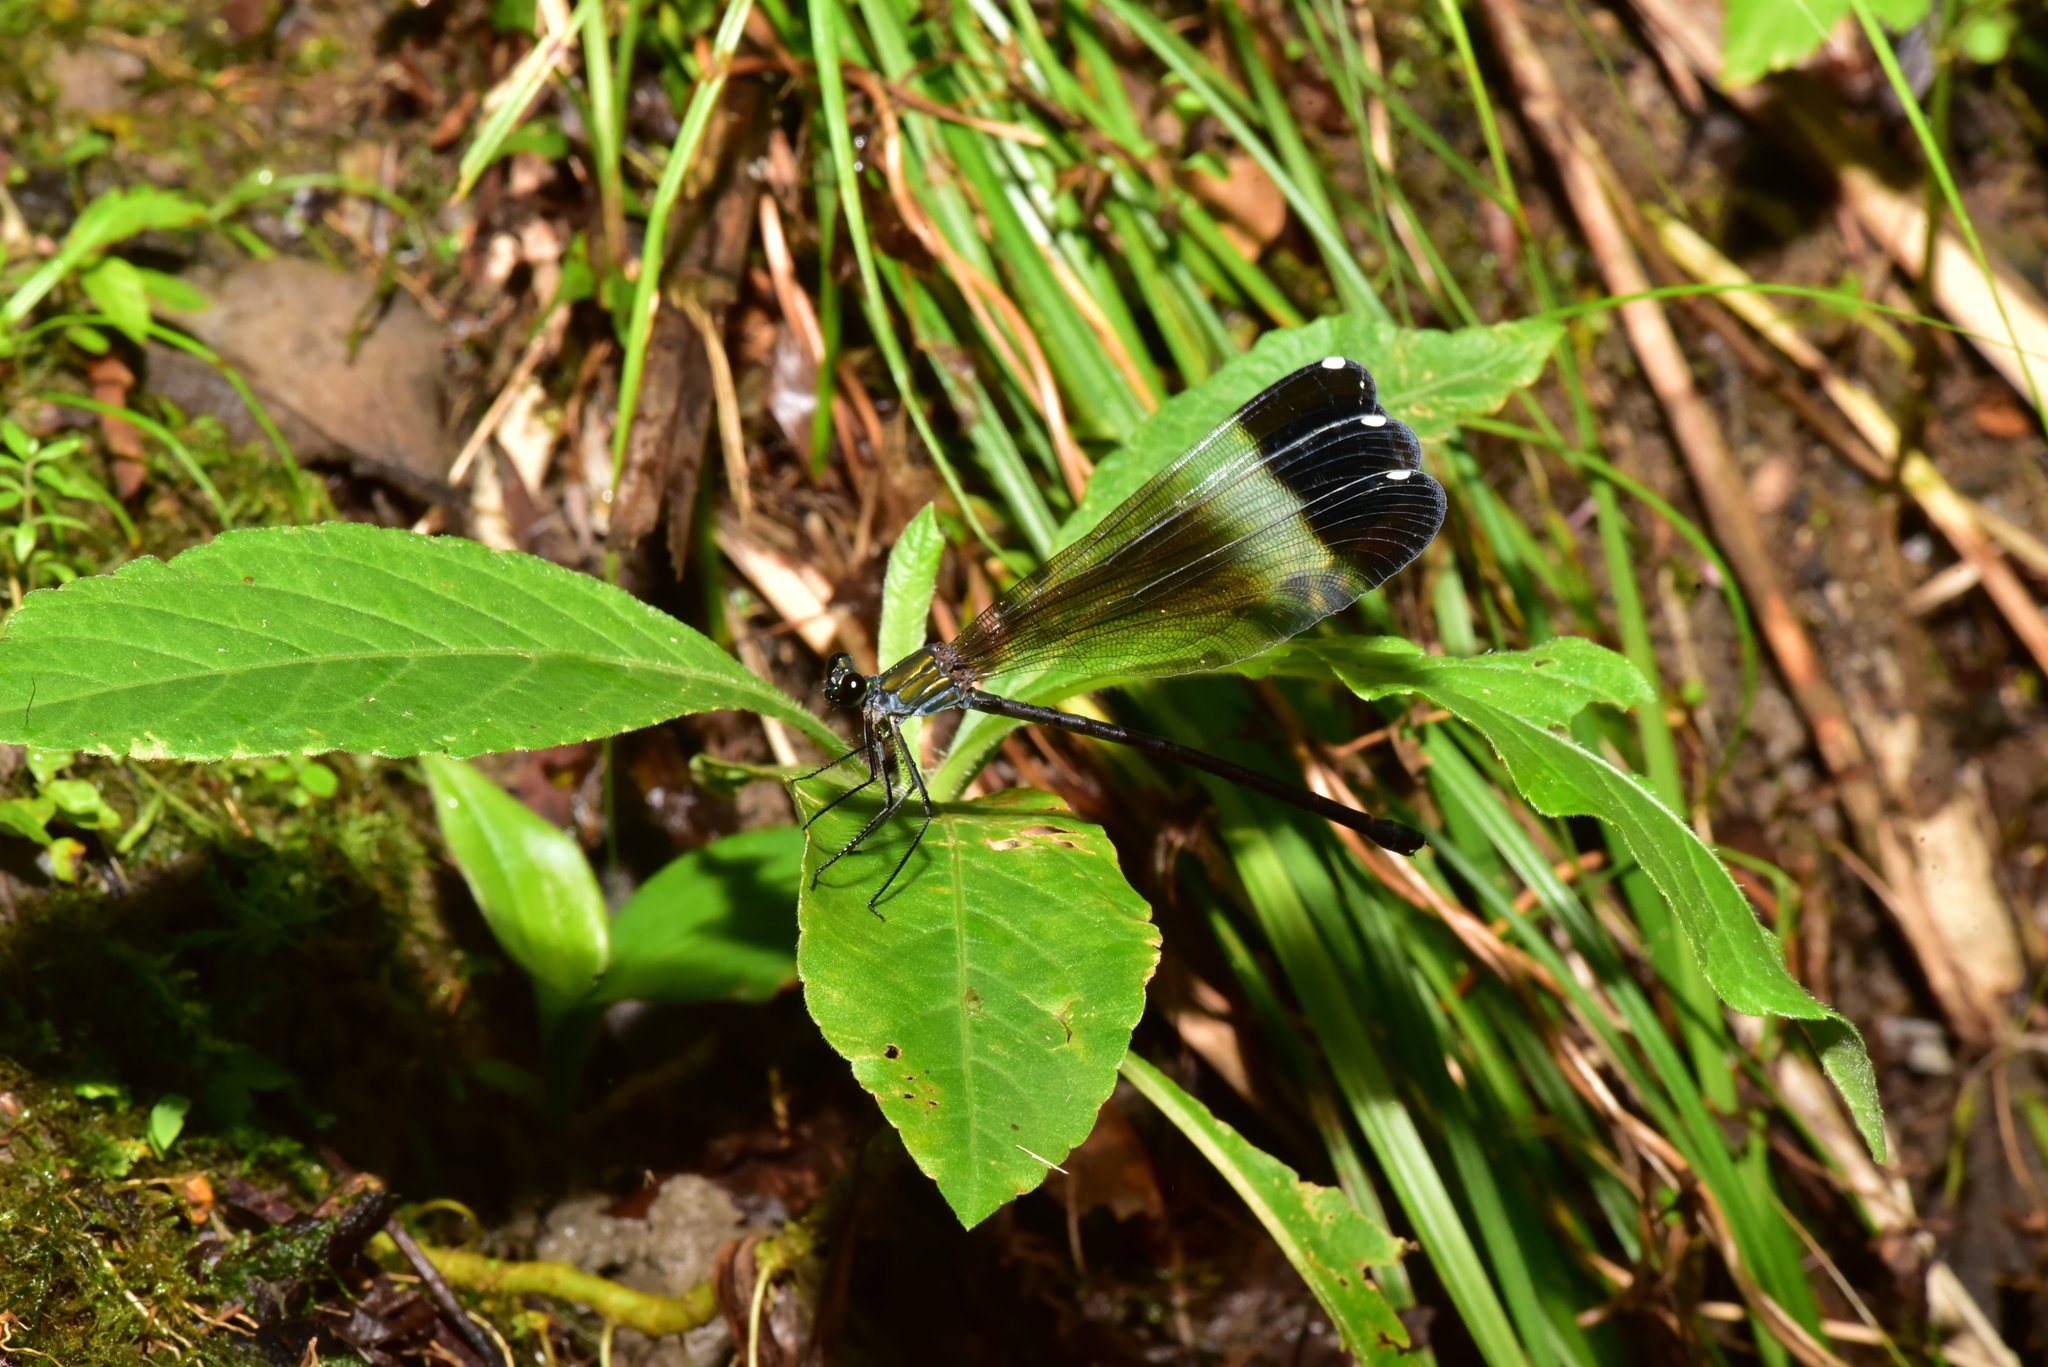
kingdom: Animalia
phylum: Arthropoda
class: Insecta
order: Odonata
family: Calopterygidae
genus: Psolodesmus
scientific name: Psolodesmus mandarinus
